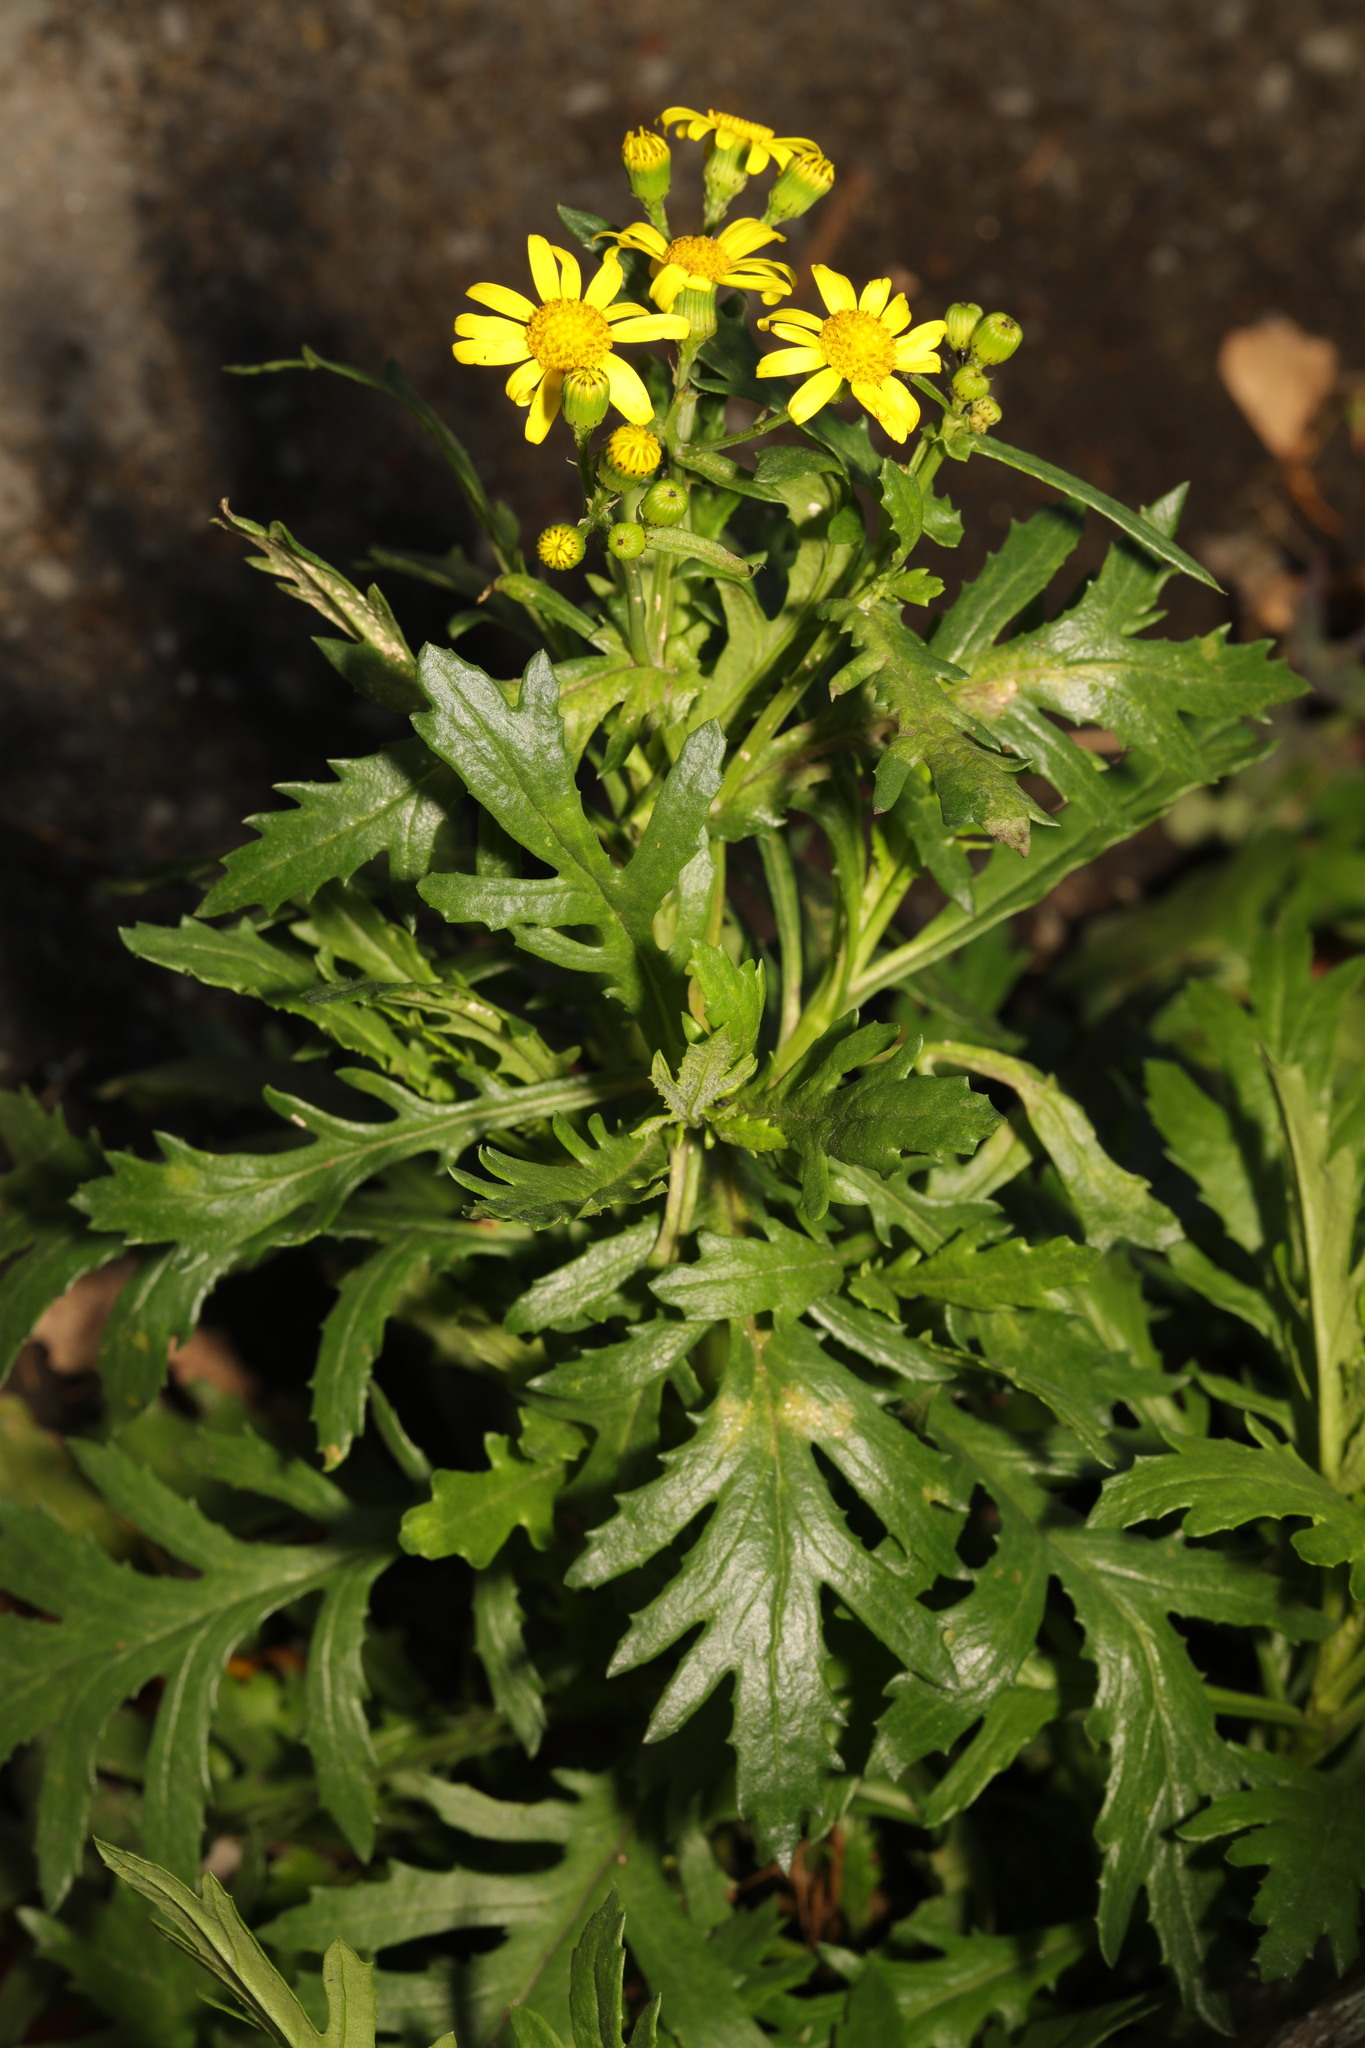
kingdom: Plantae
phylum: Tracheophyta
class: Magnoliopsida
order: Asterales
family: Asteraceae
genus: Senecio
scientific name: Senecio squalidus
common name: Oxford ragwort
